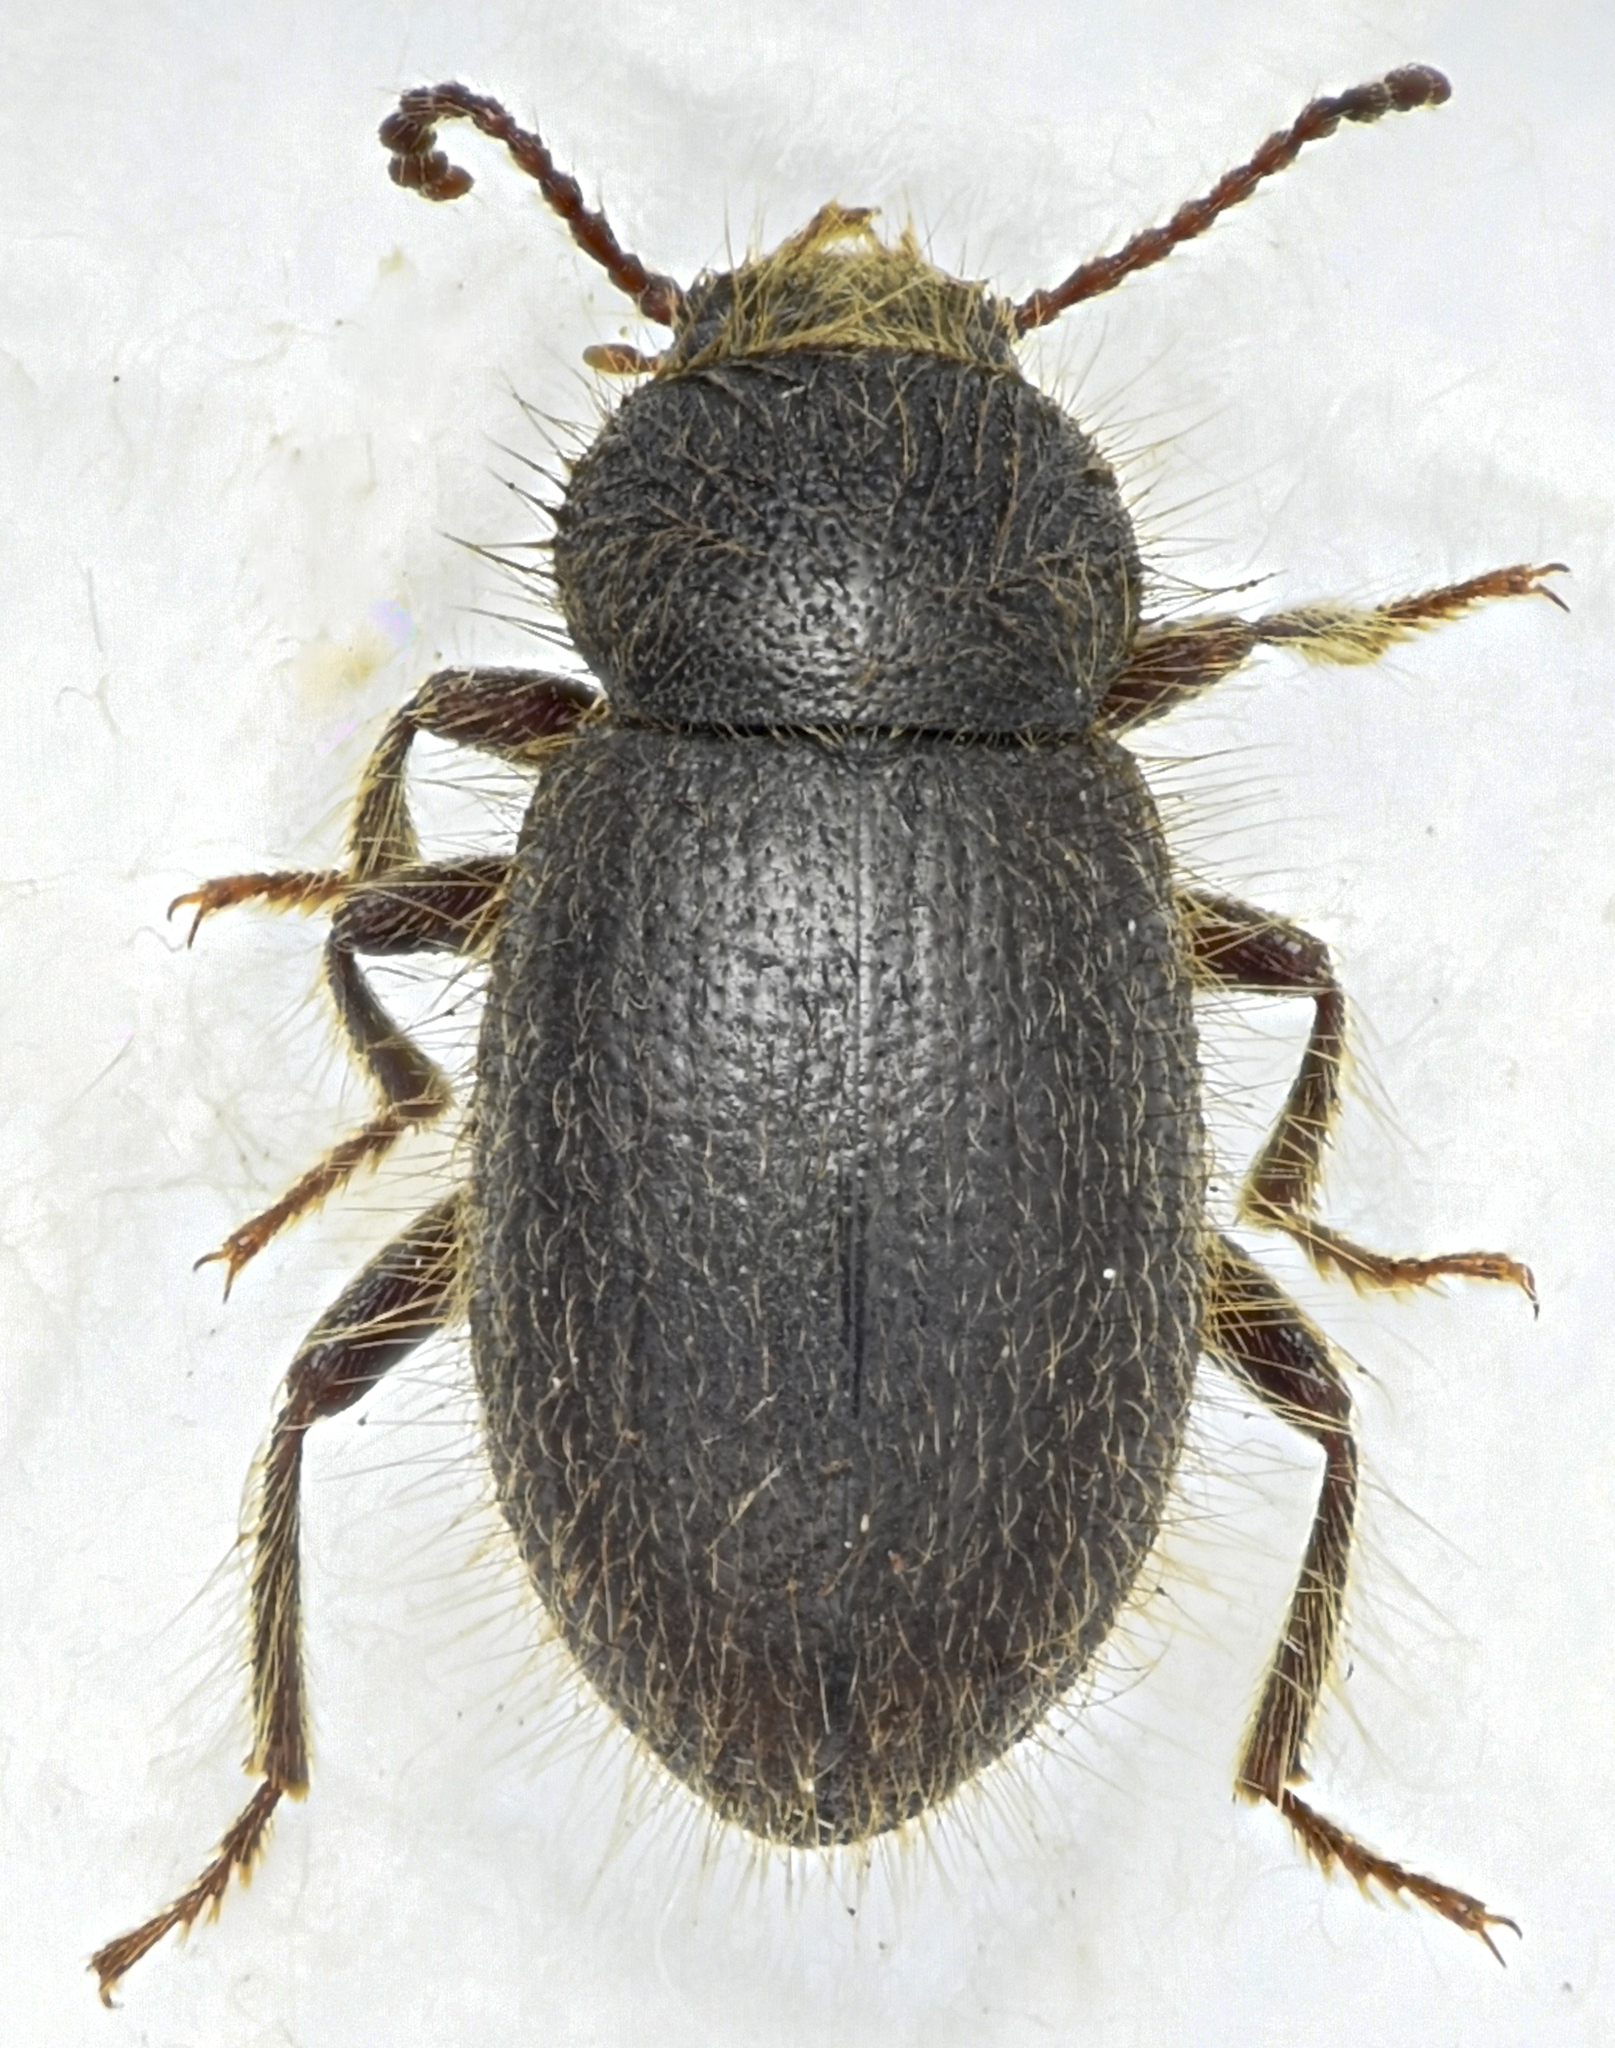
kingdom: Animalia
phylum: Arthropoda
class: Insecta
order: Coleoptera
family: Tenebrionidae
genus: Eleodes
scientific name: Eleodes littoralis
